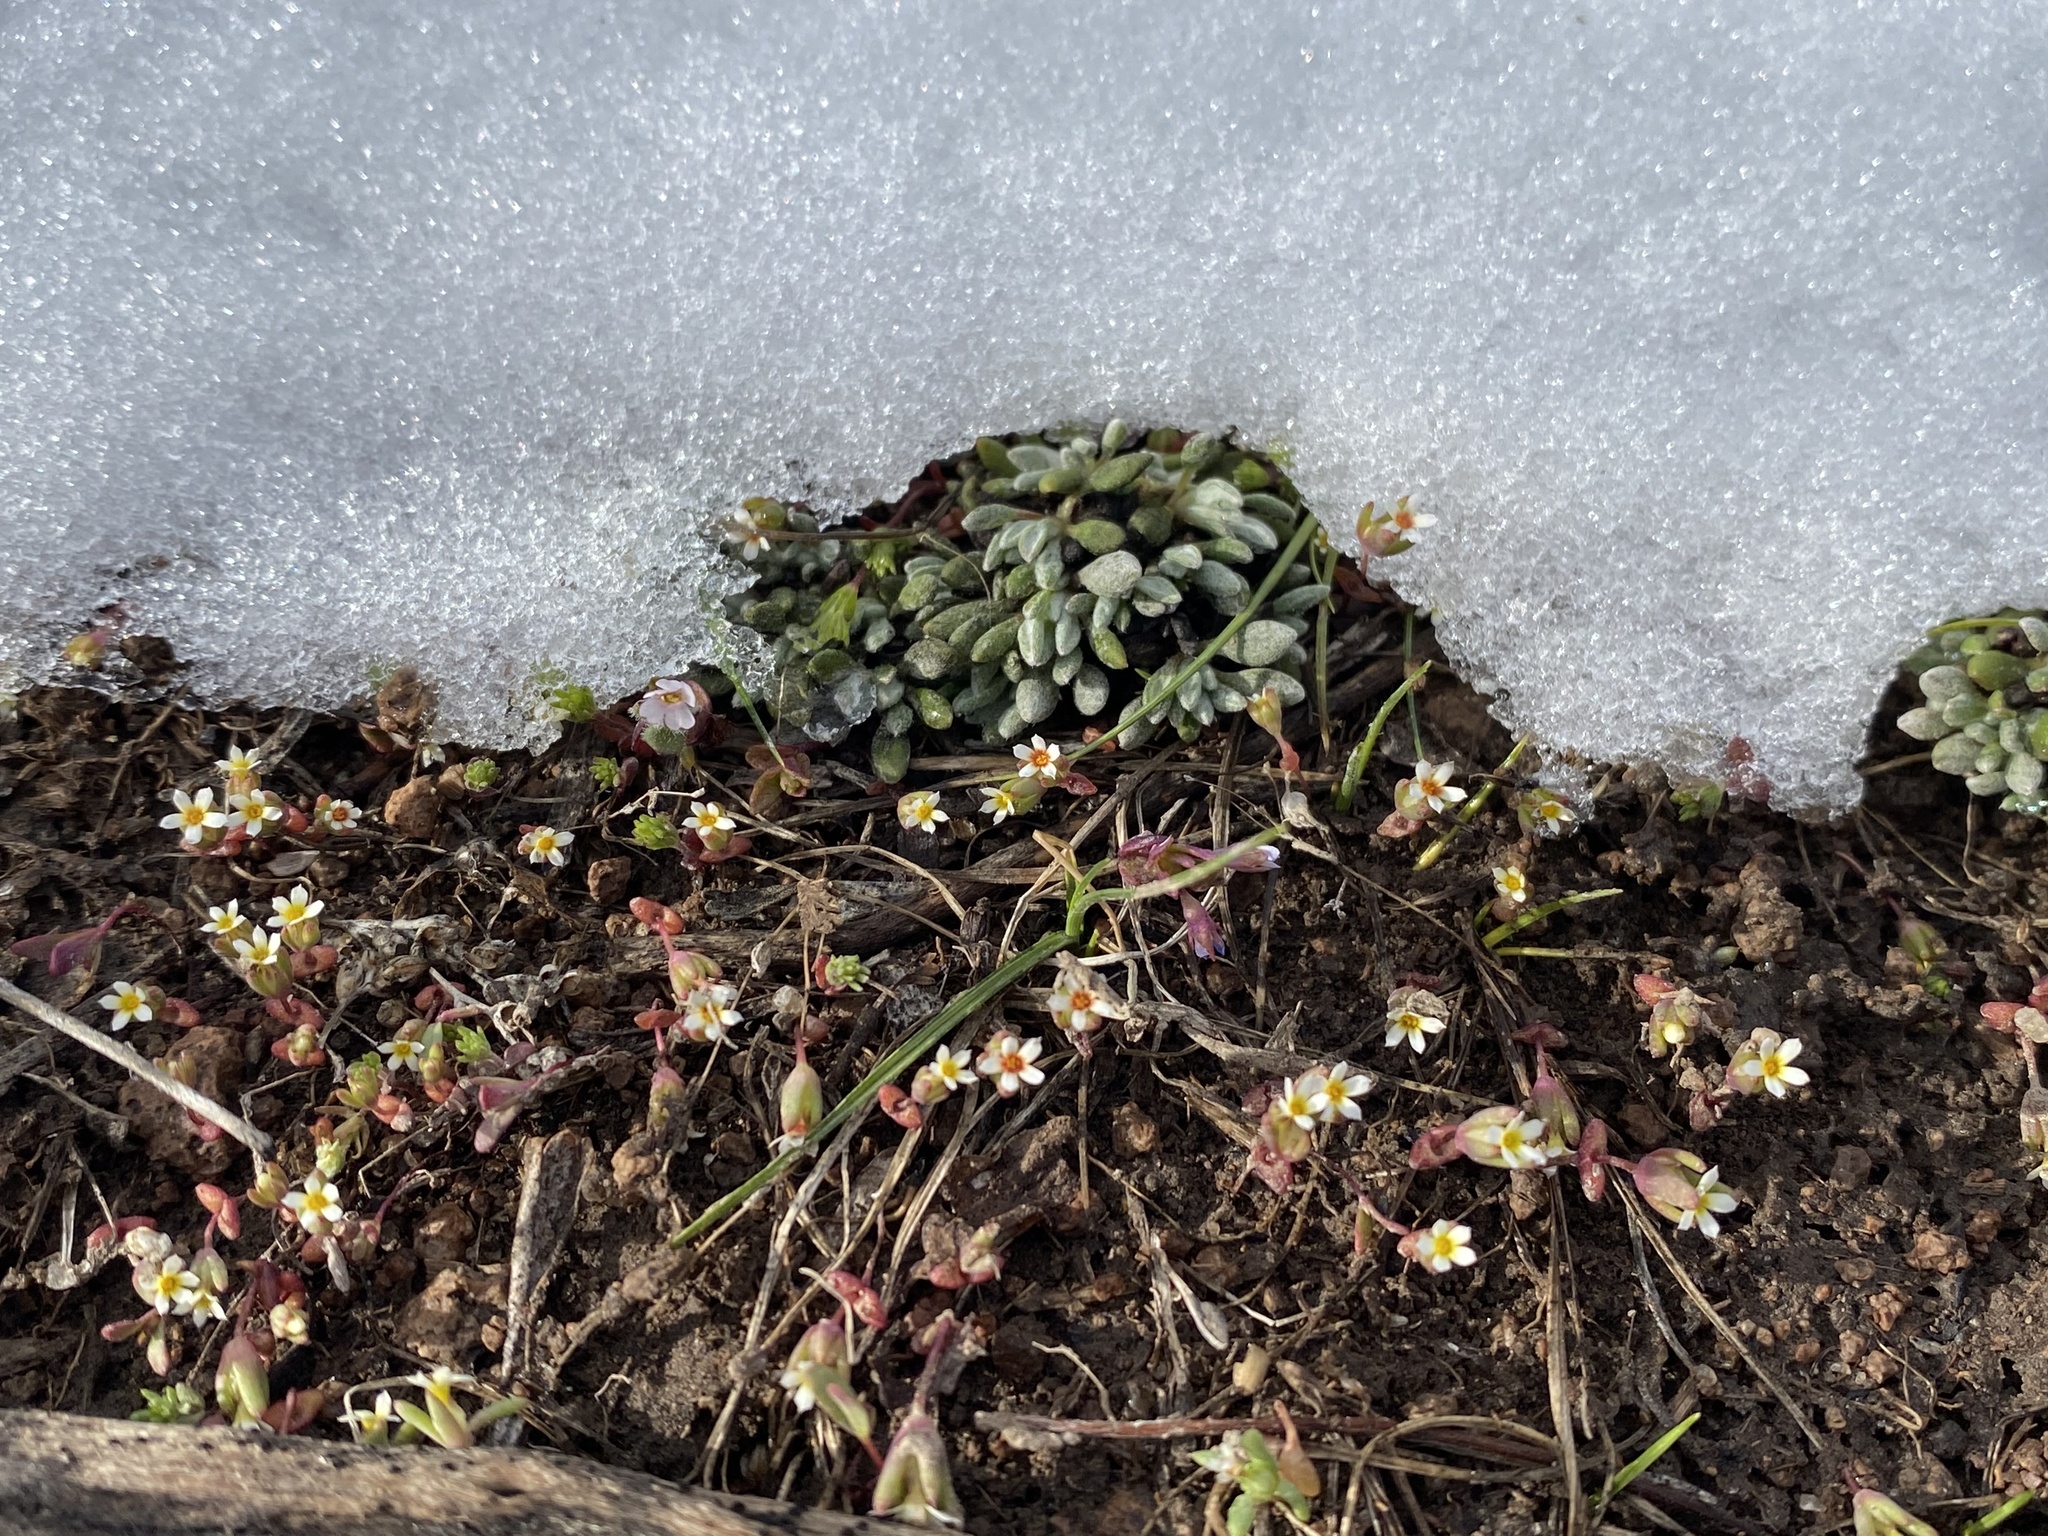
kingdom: Plantae
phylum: Tracheophyta
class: Magnoliopsida
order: Ericales
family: Polemoniaceae
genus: Gymnosteris
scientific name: Gymnosteris parvula
